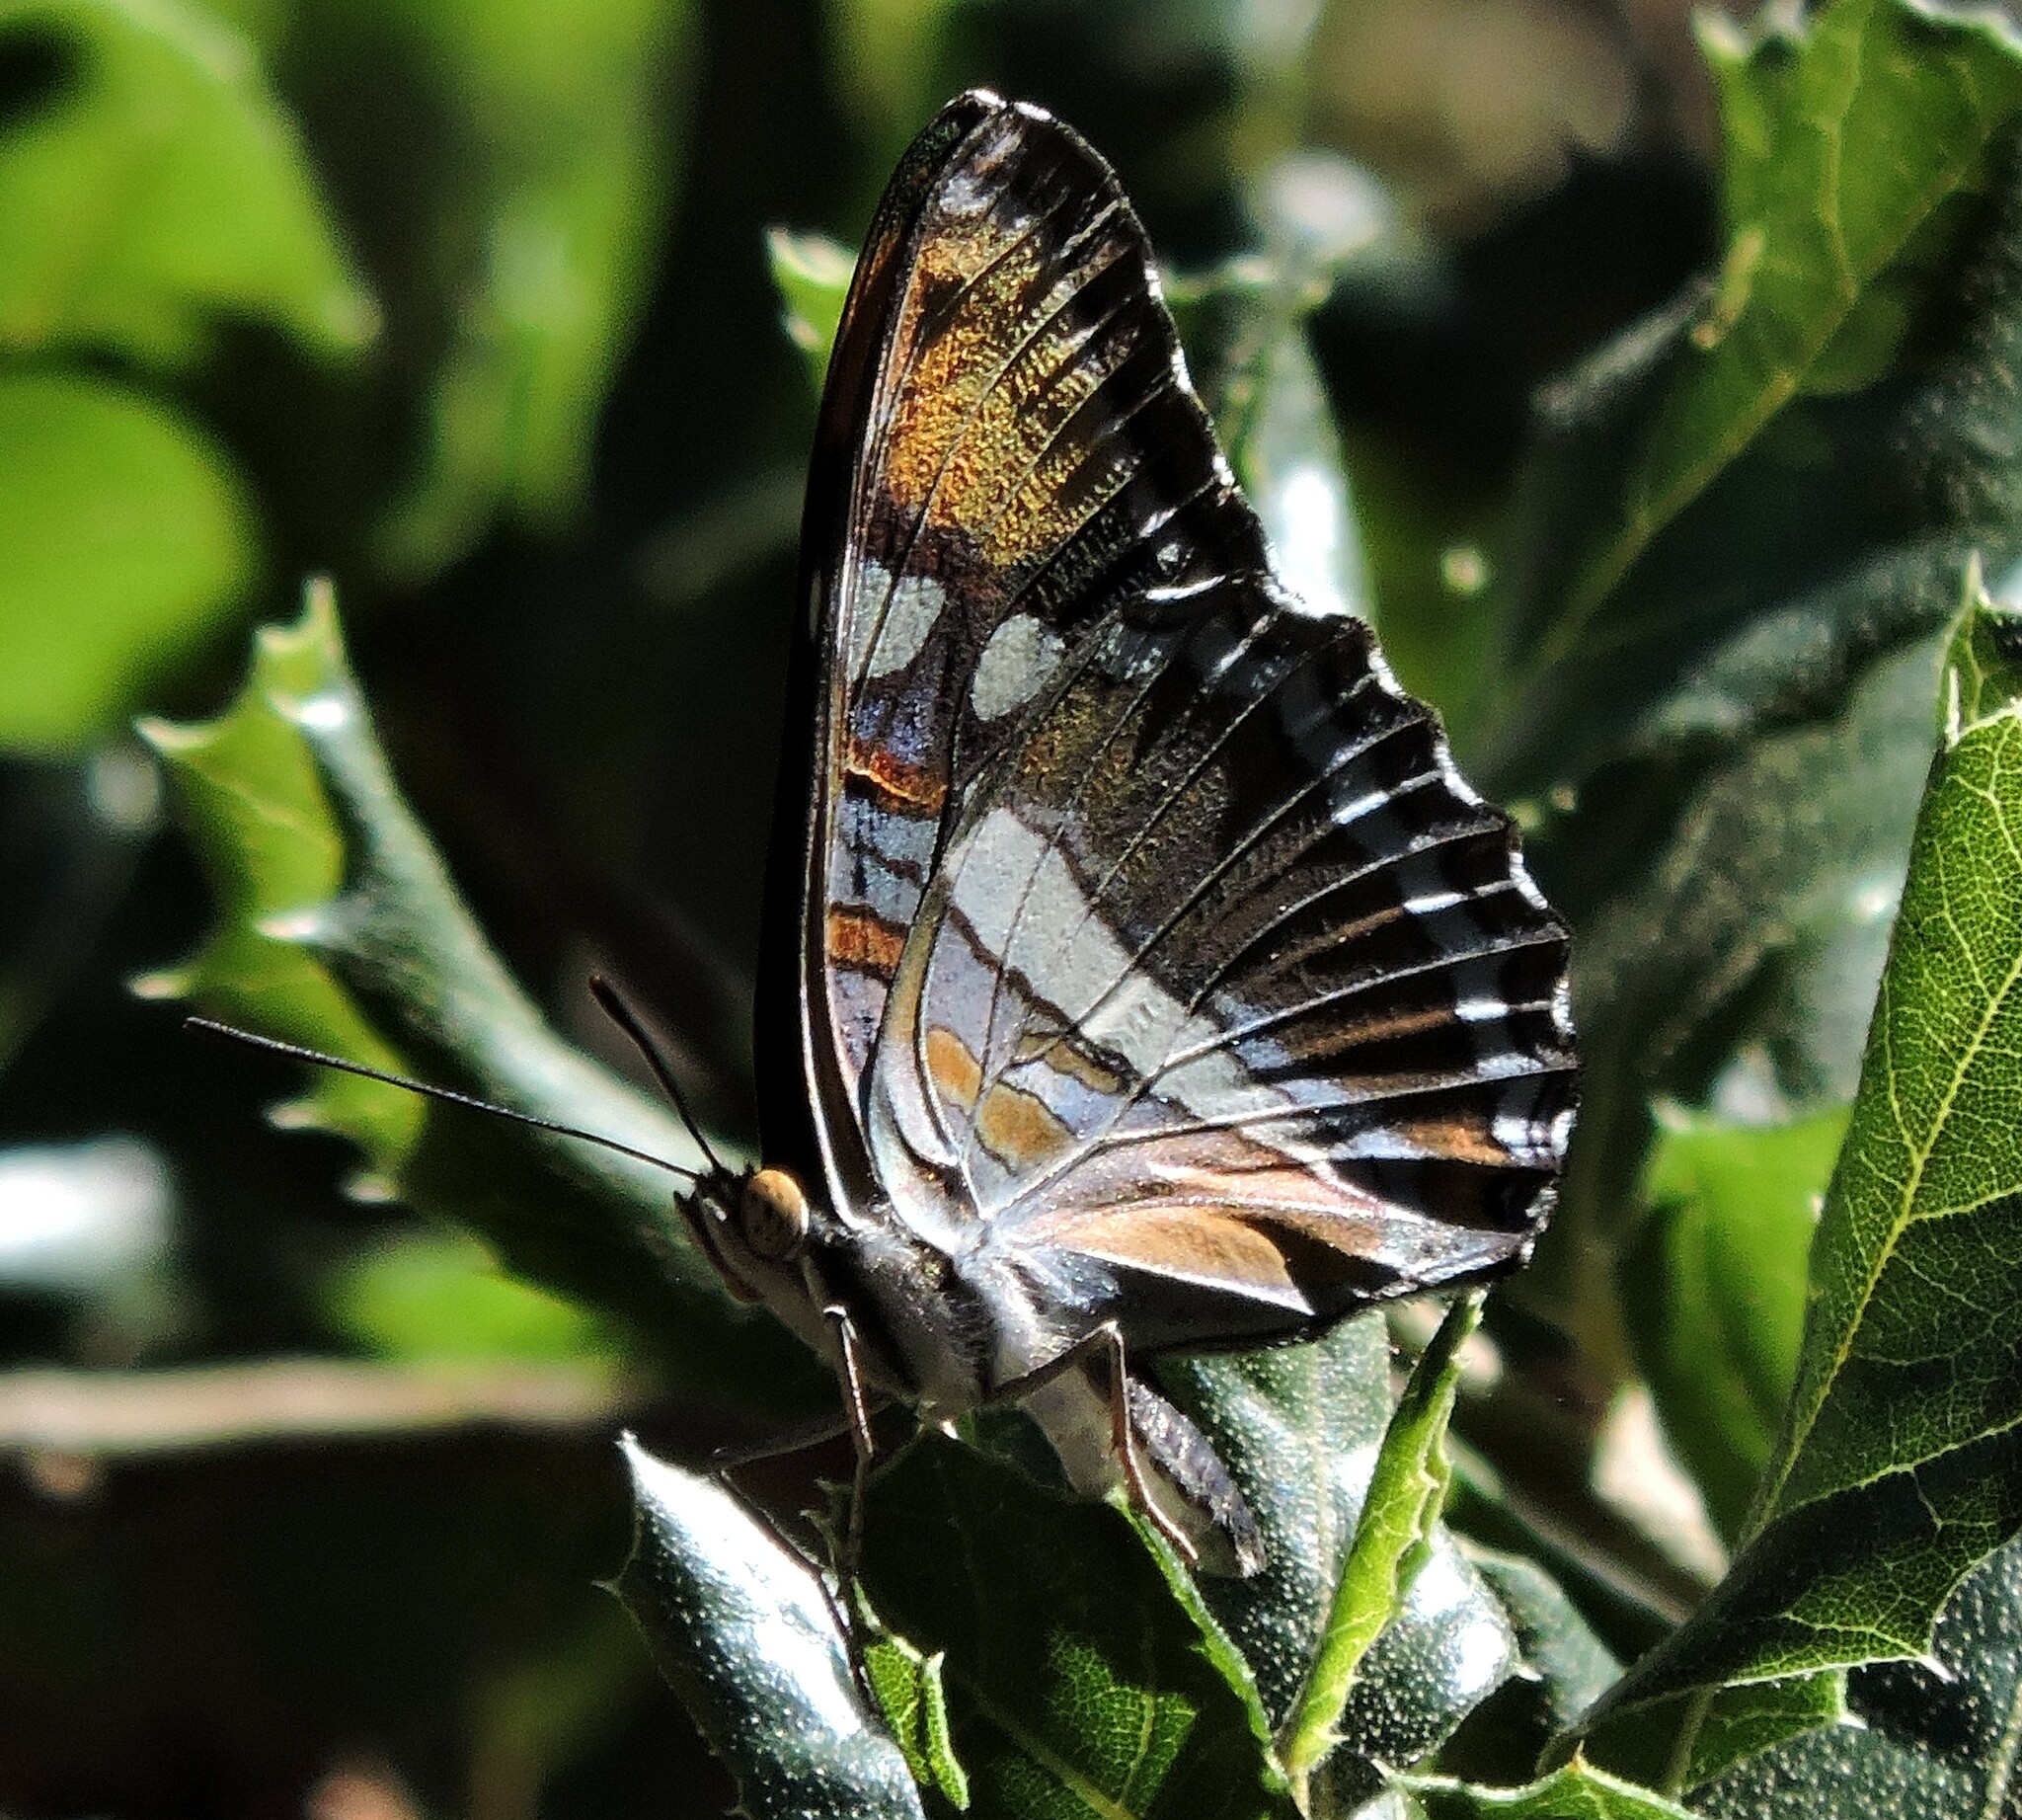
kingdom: Animalia
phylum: Arthropoda
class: Insecta
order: Lepidoptera
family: Nymphalidae
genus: Limenitis
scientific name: Limenitis bredowii
